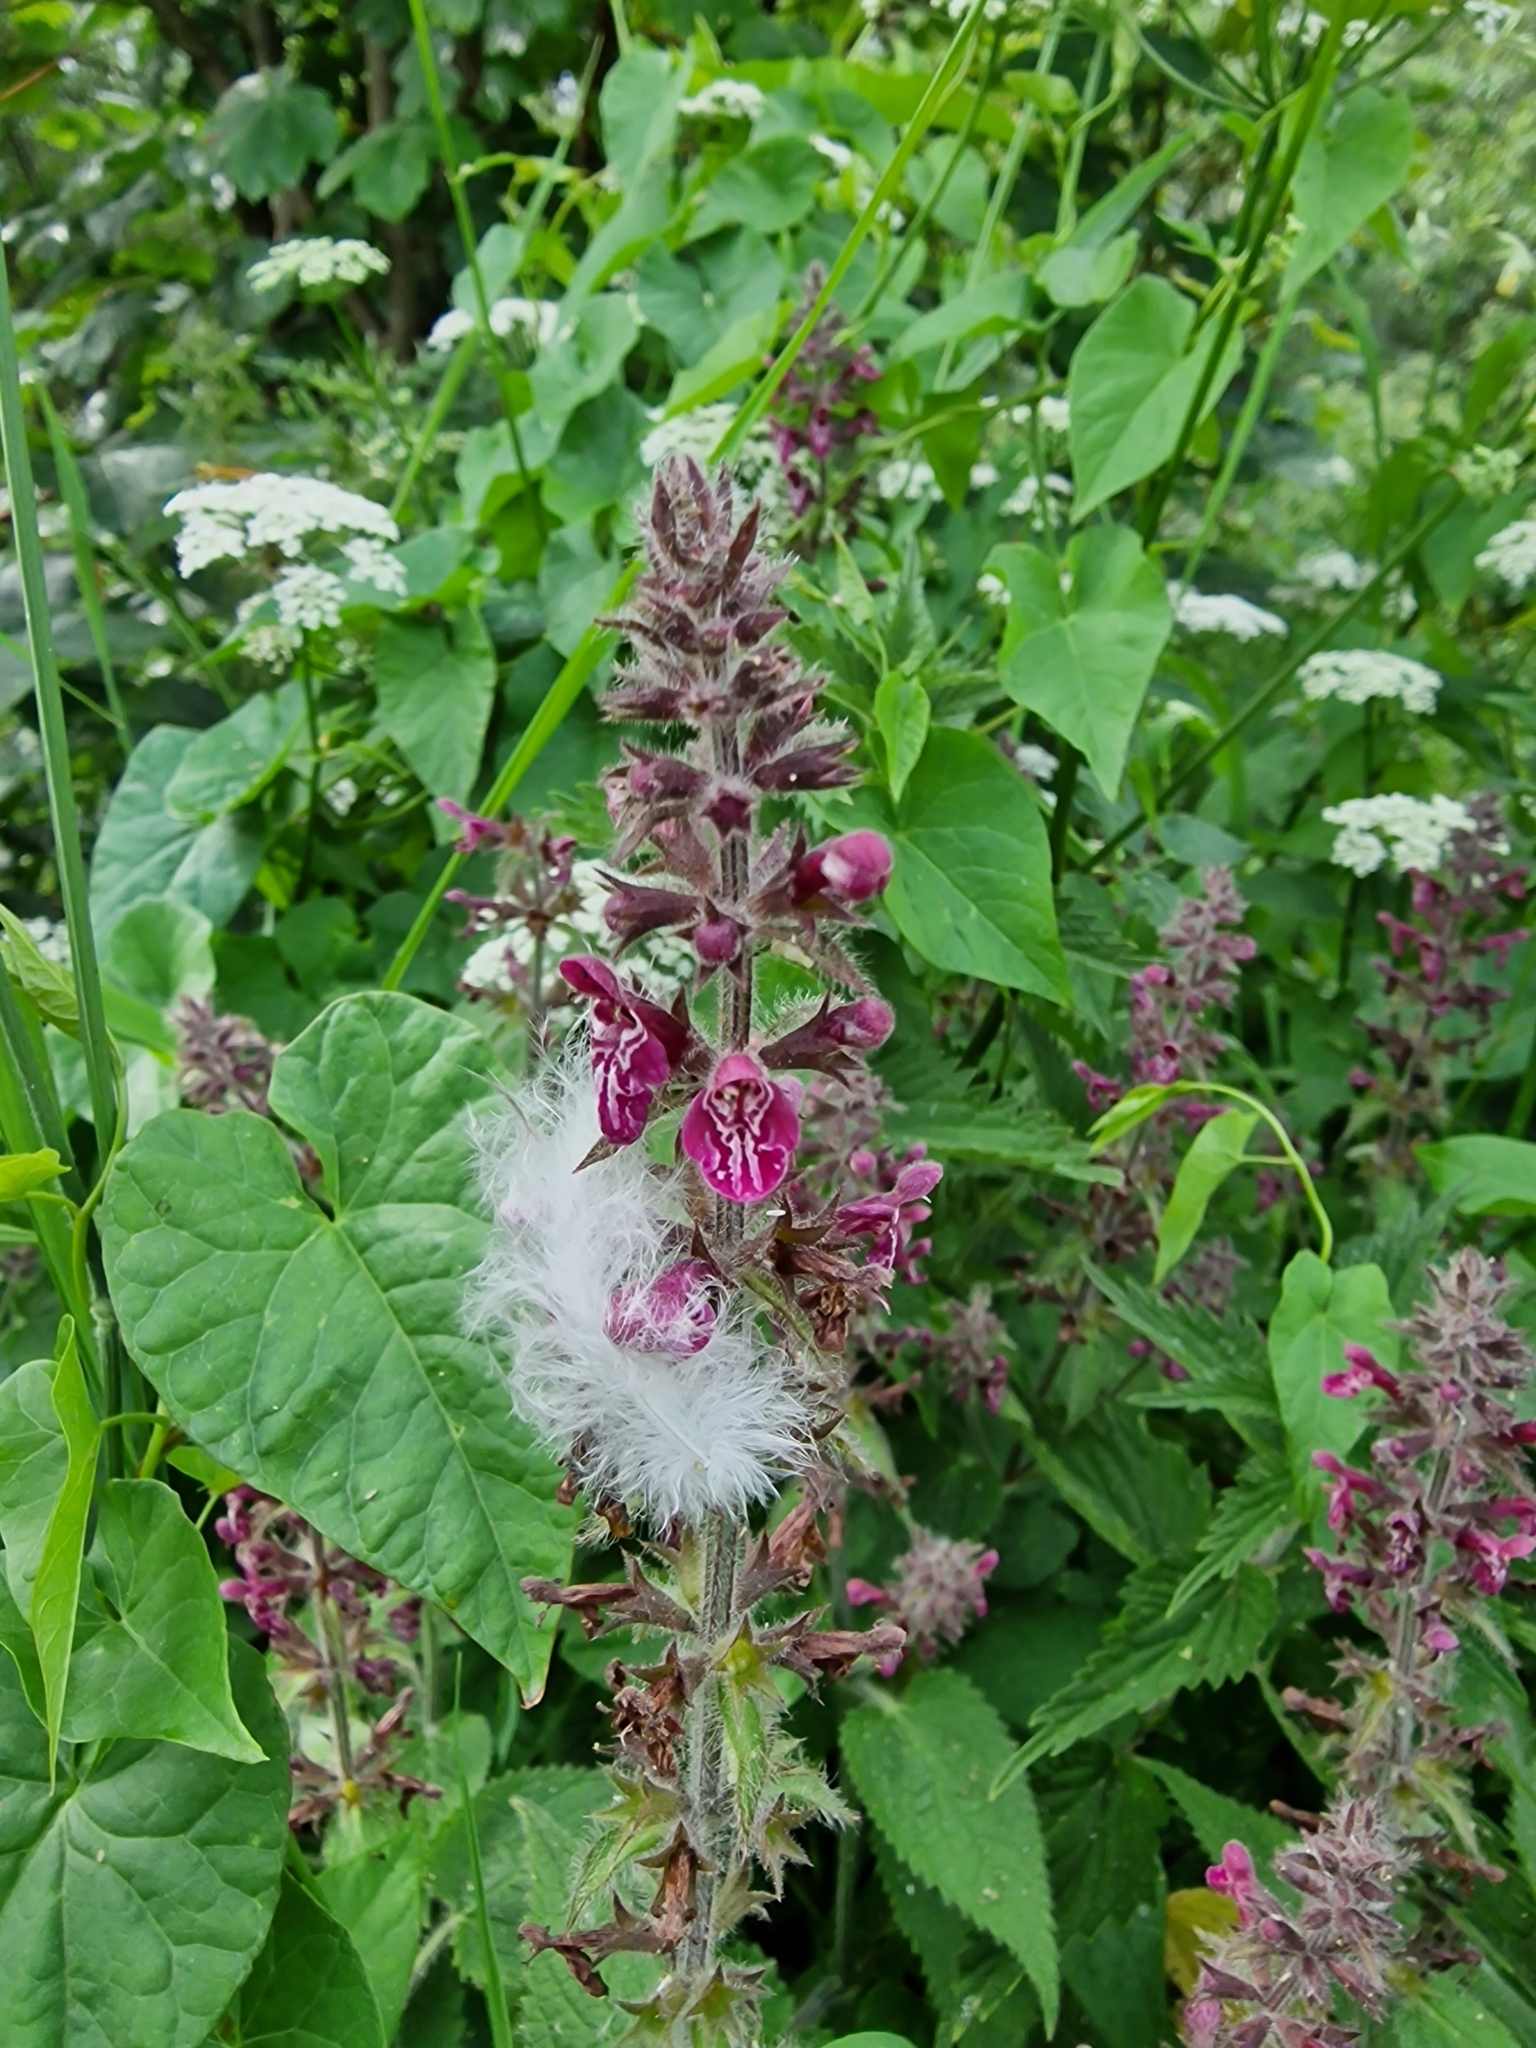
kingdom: Plantae
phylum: Tracheophyta
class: Magnoliopsida
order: Lamiales
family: Lamiaceae
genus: Stachys
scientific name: Stachys sylvatica
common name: Hedge woundwort
